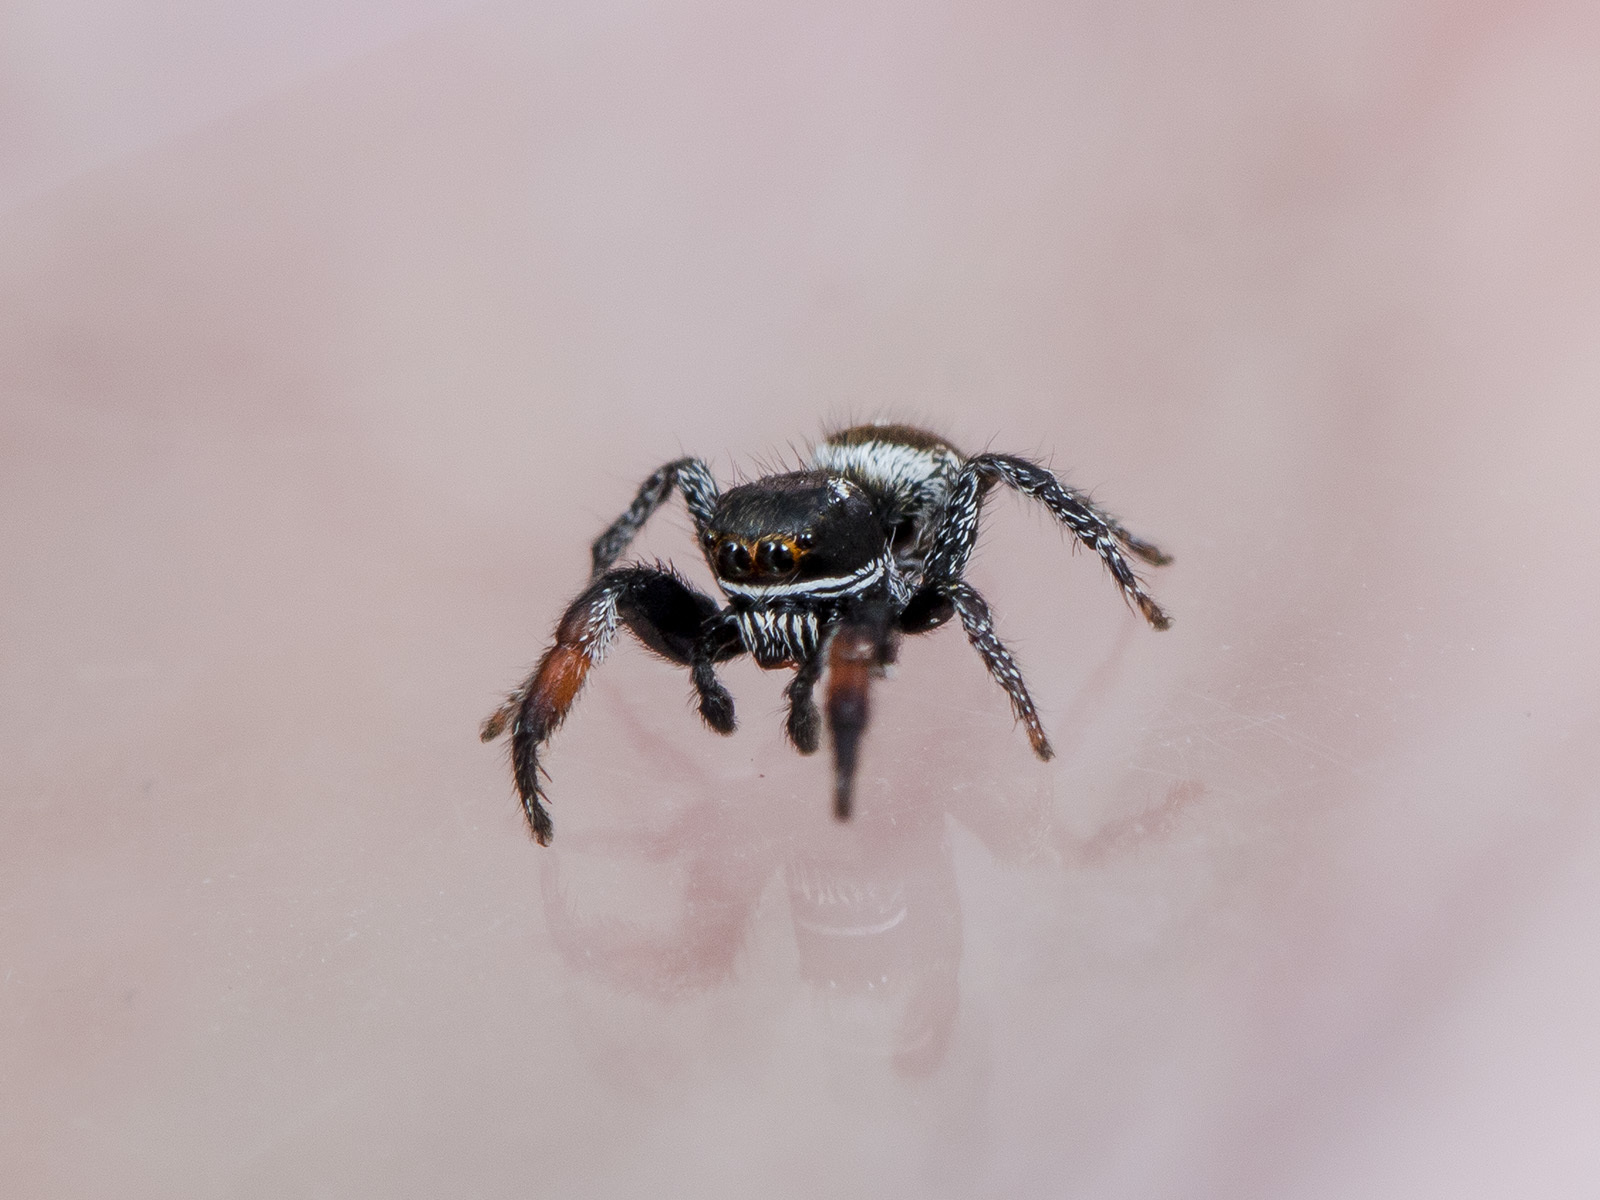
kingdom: Animalia
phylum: Arthropoda
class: Arachnida
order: Araneae
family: Salticidae
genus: Pellenes
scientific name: Pellenes allegrii
